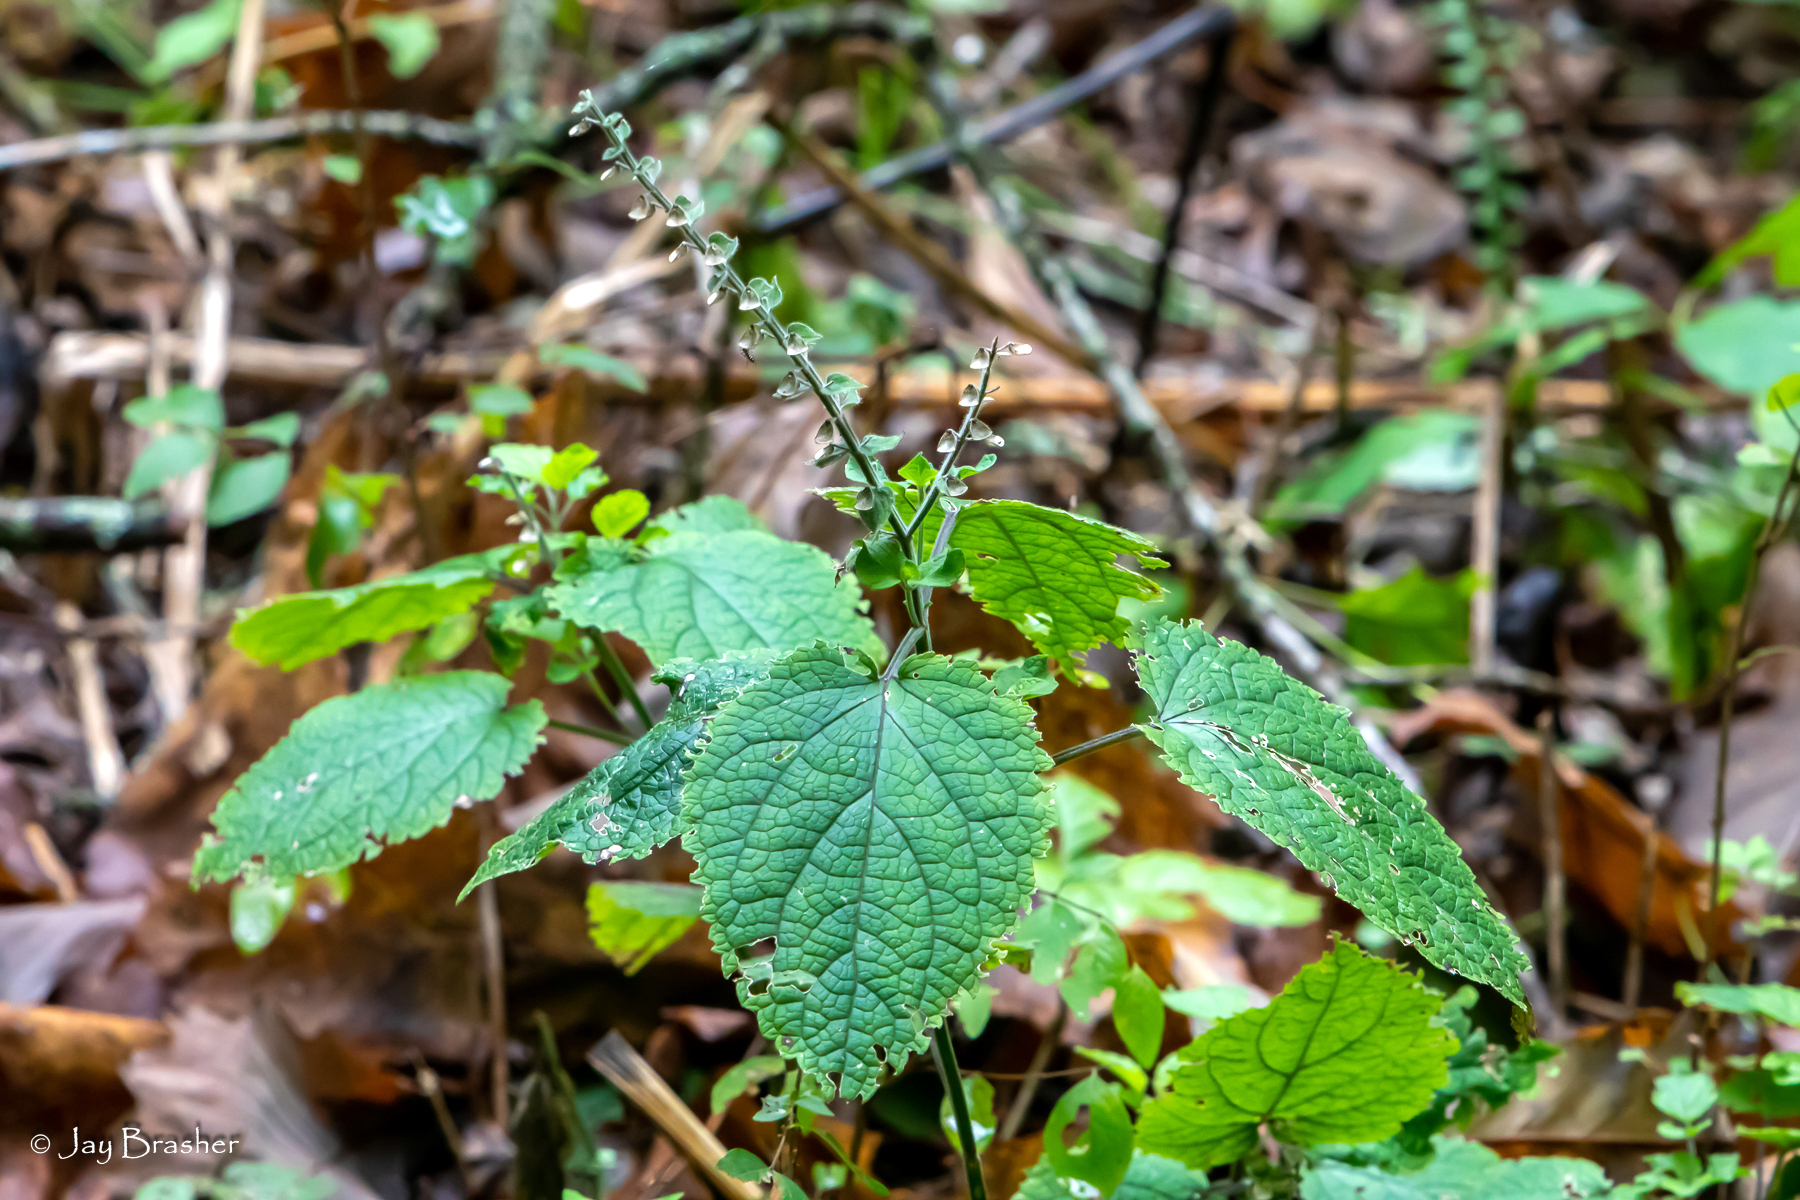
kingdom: Plantae
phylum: Tracheophyta
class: Magnoliopsida
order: Lamiales
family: Lamiaceae
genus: Scutellaria
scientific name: Scutellaria ovata
